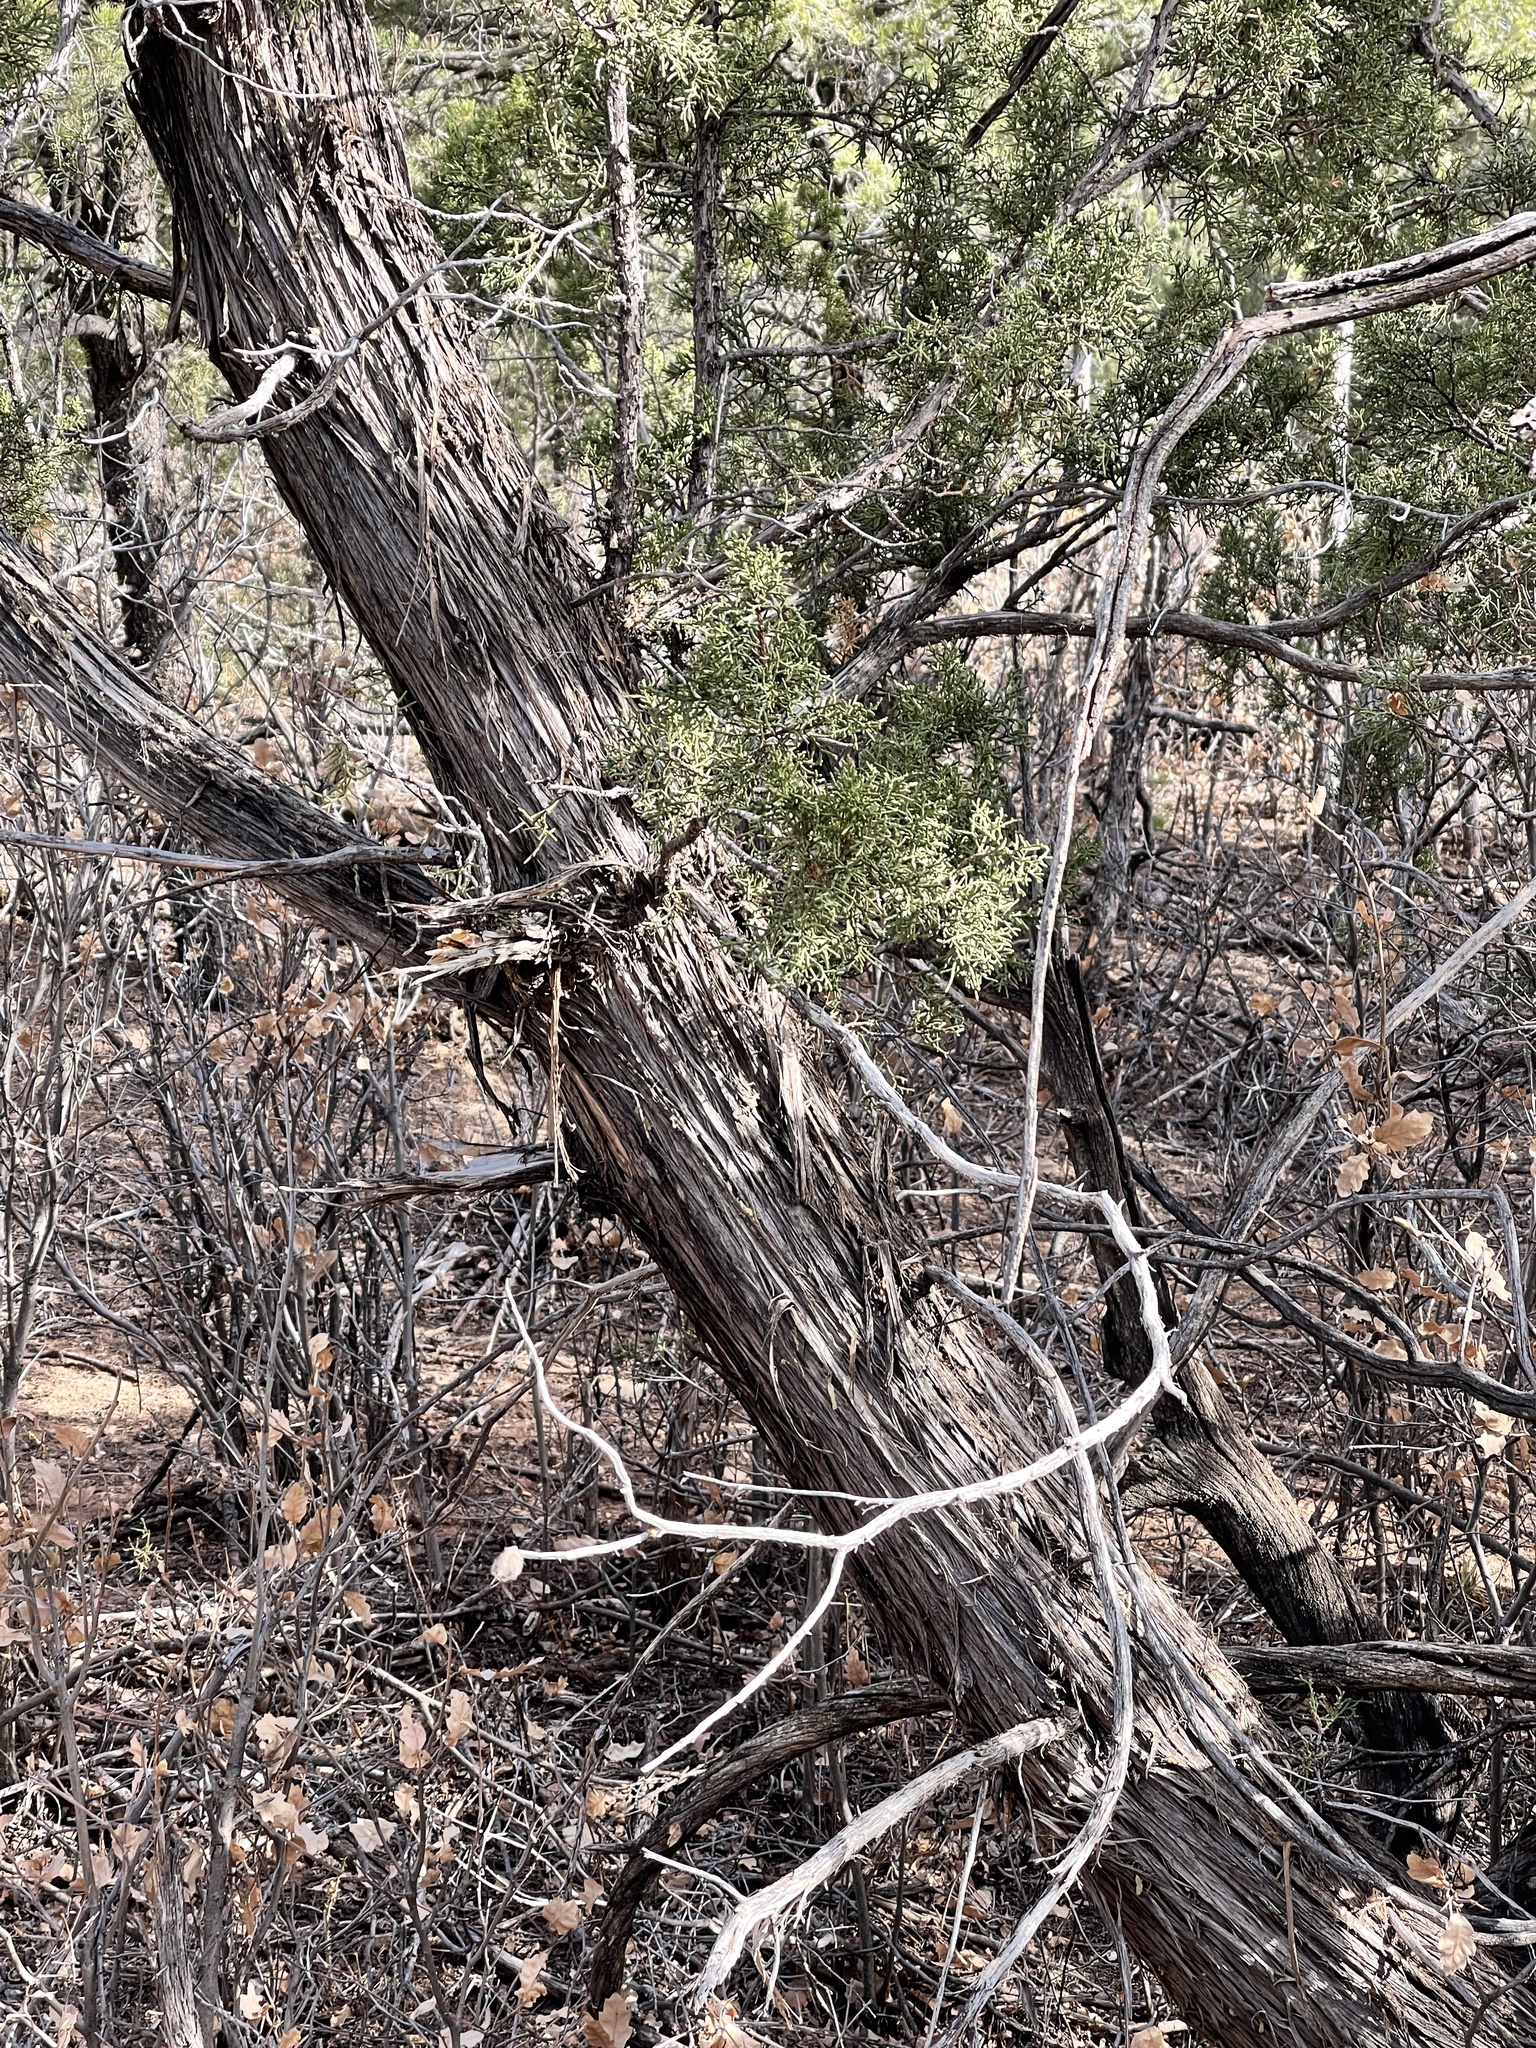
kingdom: Plantae
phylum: Tracheophyta
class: Pinopsida
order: Pinales
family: Cupressaceae
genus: Juniperus
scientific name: Juniperus monosperma
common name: One-seed juniper
